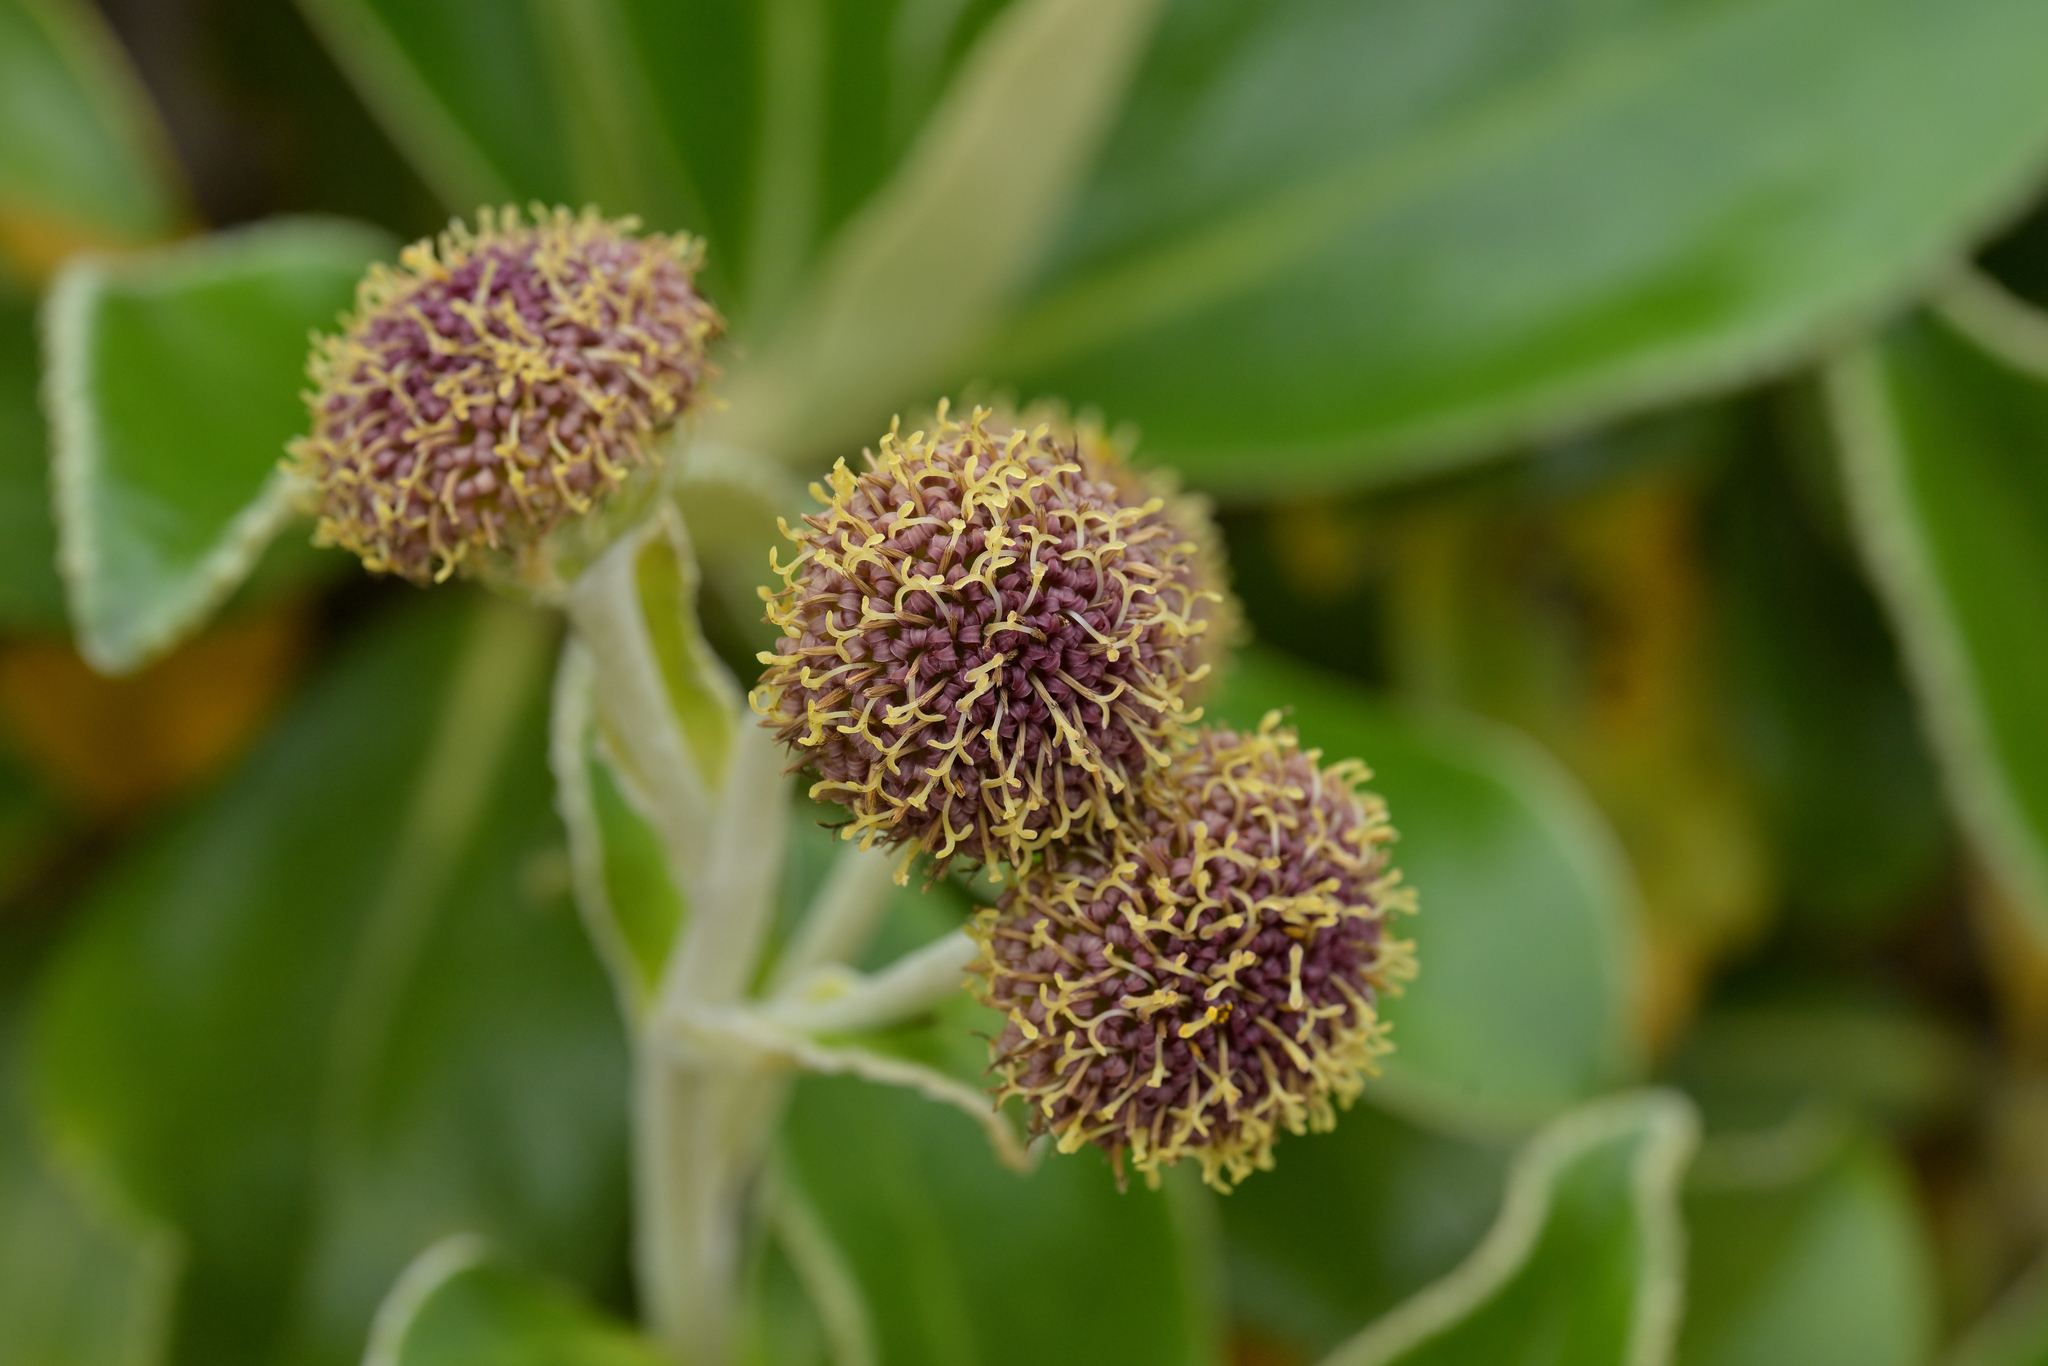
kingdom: Plantae
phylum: Tracheophyta
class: Magnoliopsida
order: Asterales
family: Asteraceae
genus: Macrolearia
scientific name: Macrolearia colensoi
